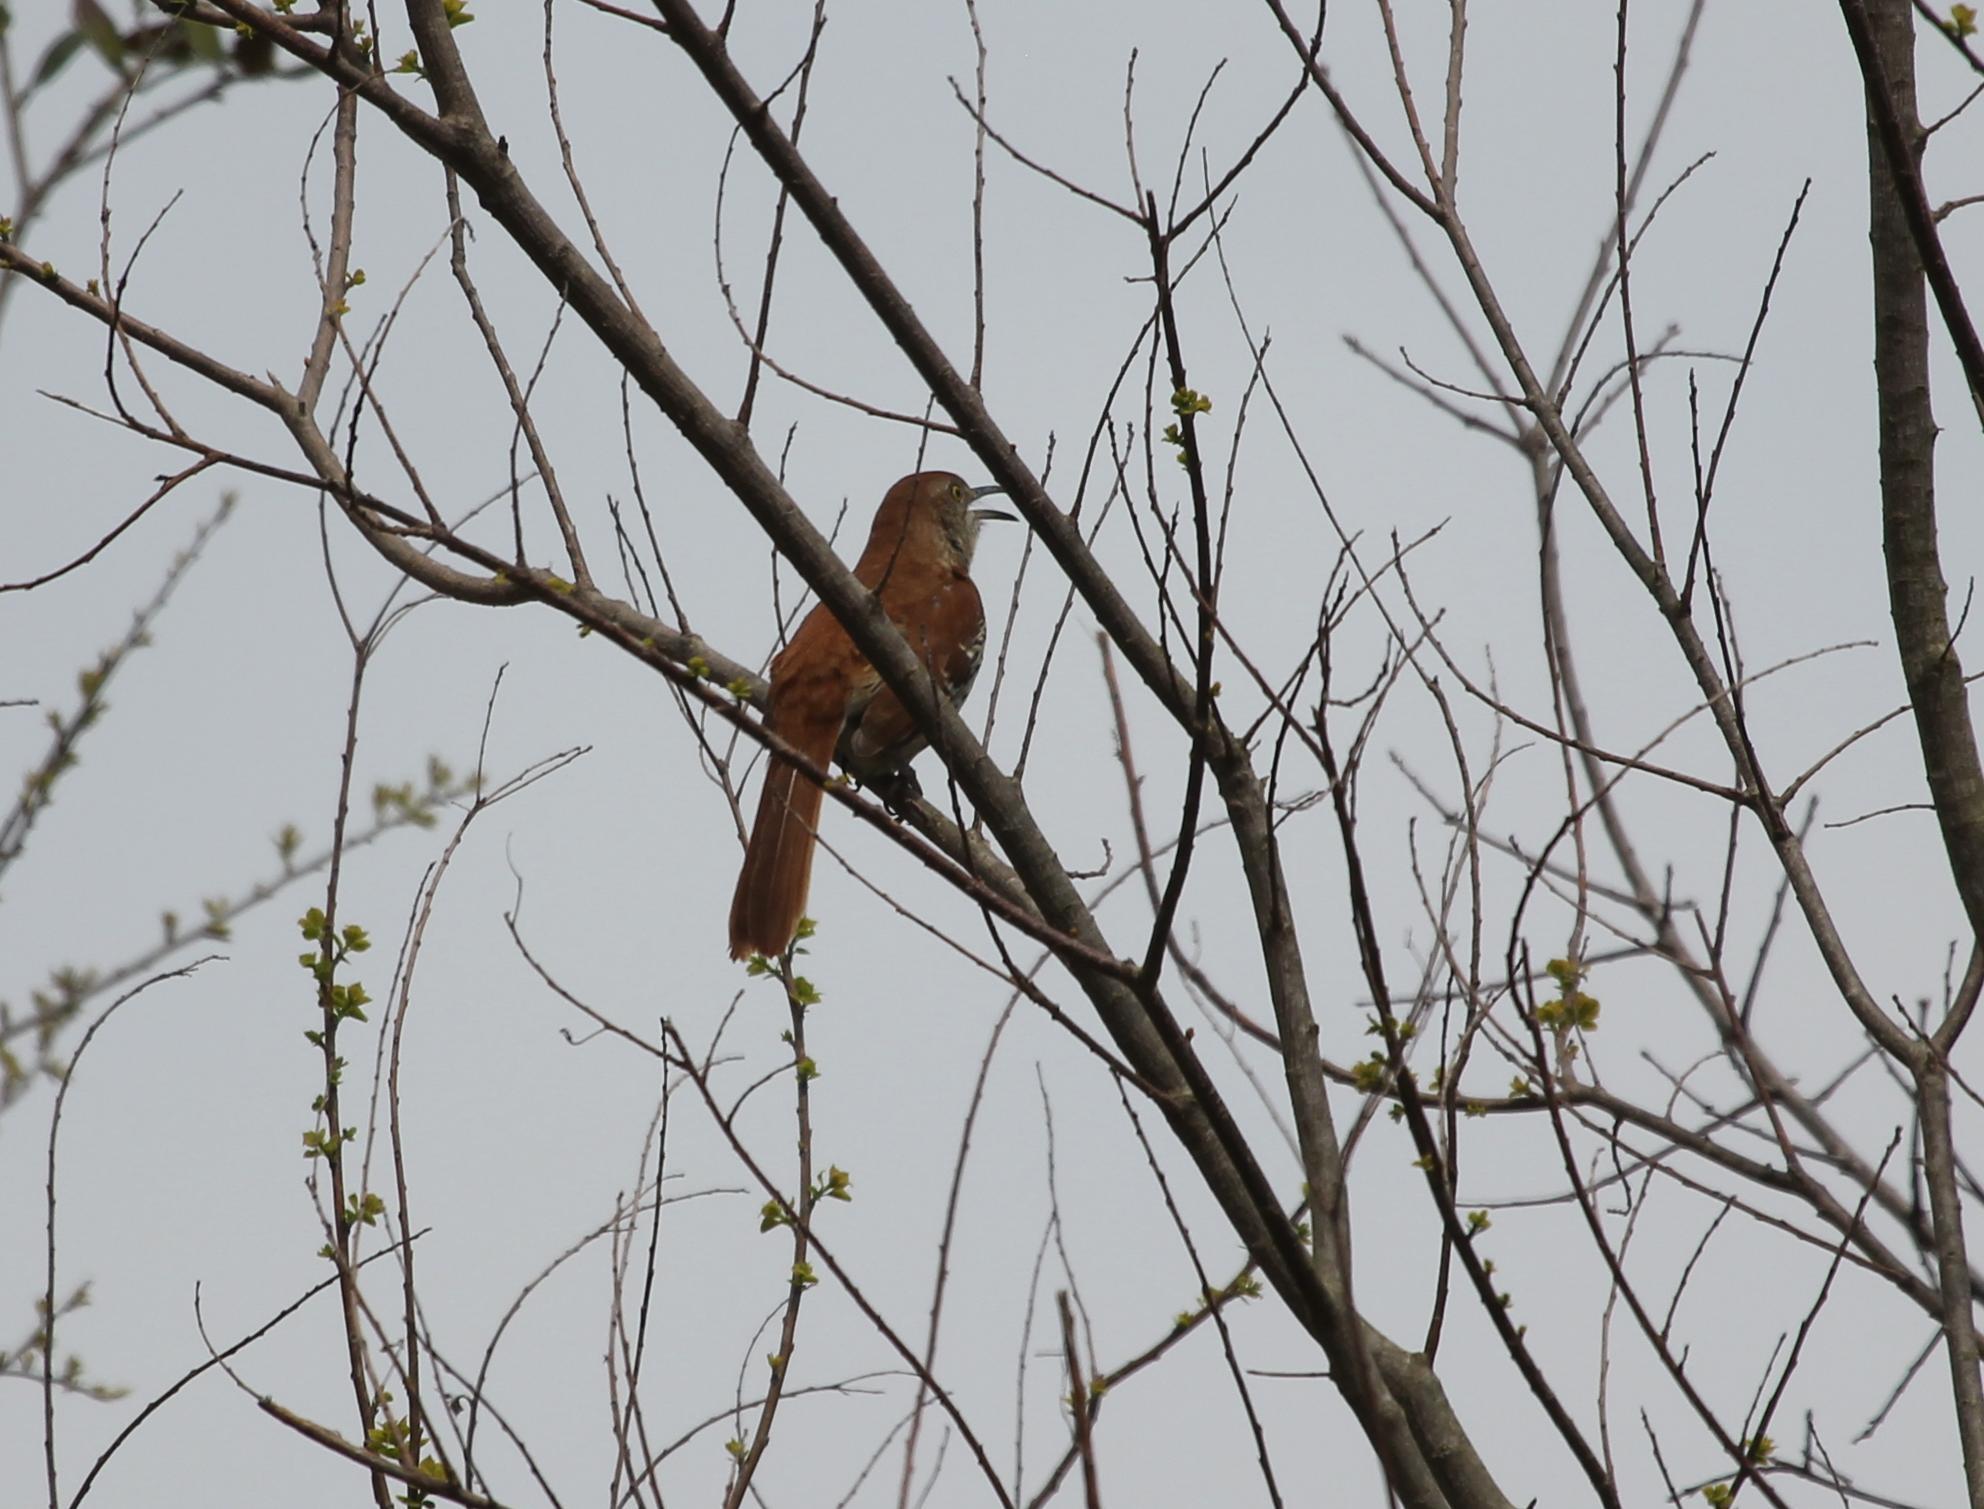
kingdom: Animalia
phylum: Chordata
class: Aves
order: Passeriformes
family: Mimidae
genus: Toxostoma
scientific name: Toxostoma rufum
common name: Brown thrasher
